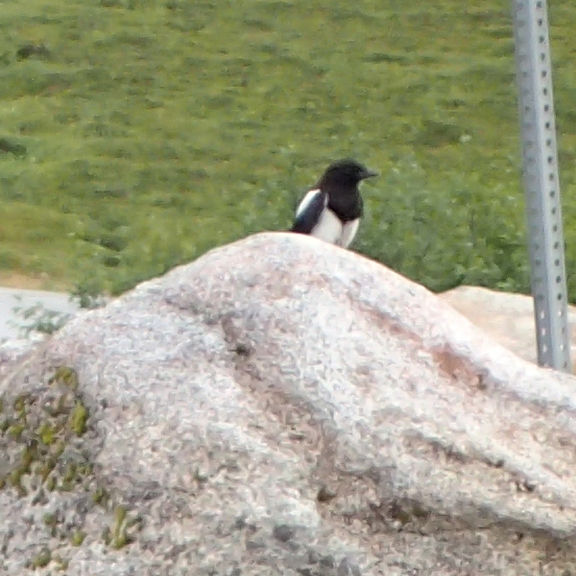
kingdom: Animalia
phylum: Chordata
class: Aves
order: Passeriformes
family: Corvidae
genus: Pica
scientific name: Pica hudsonia
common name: Black-billed magpie
